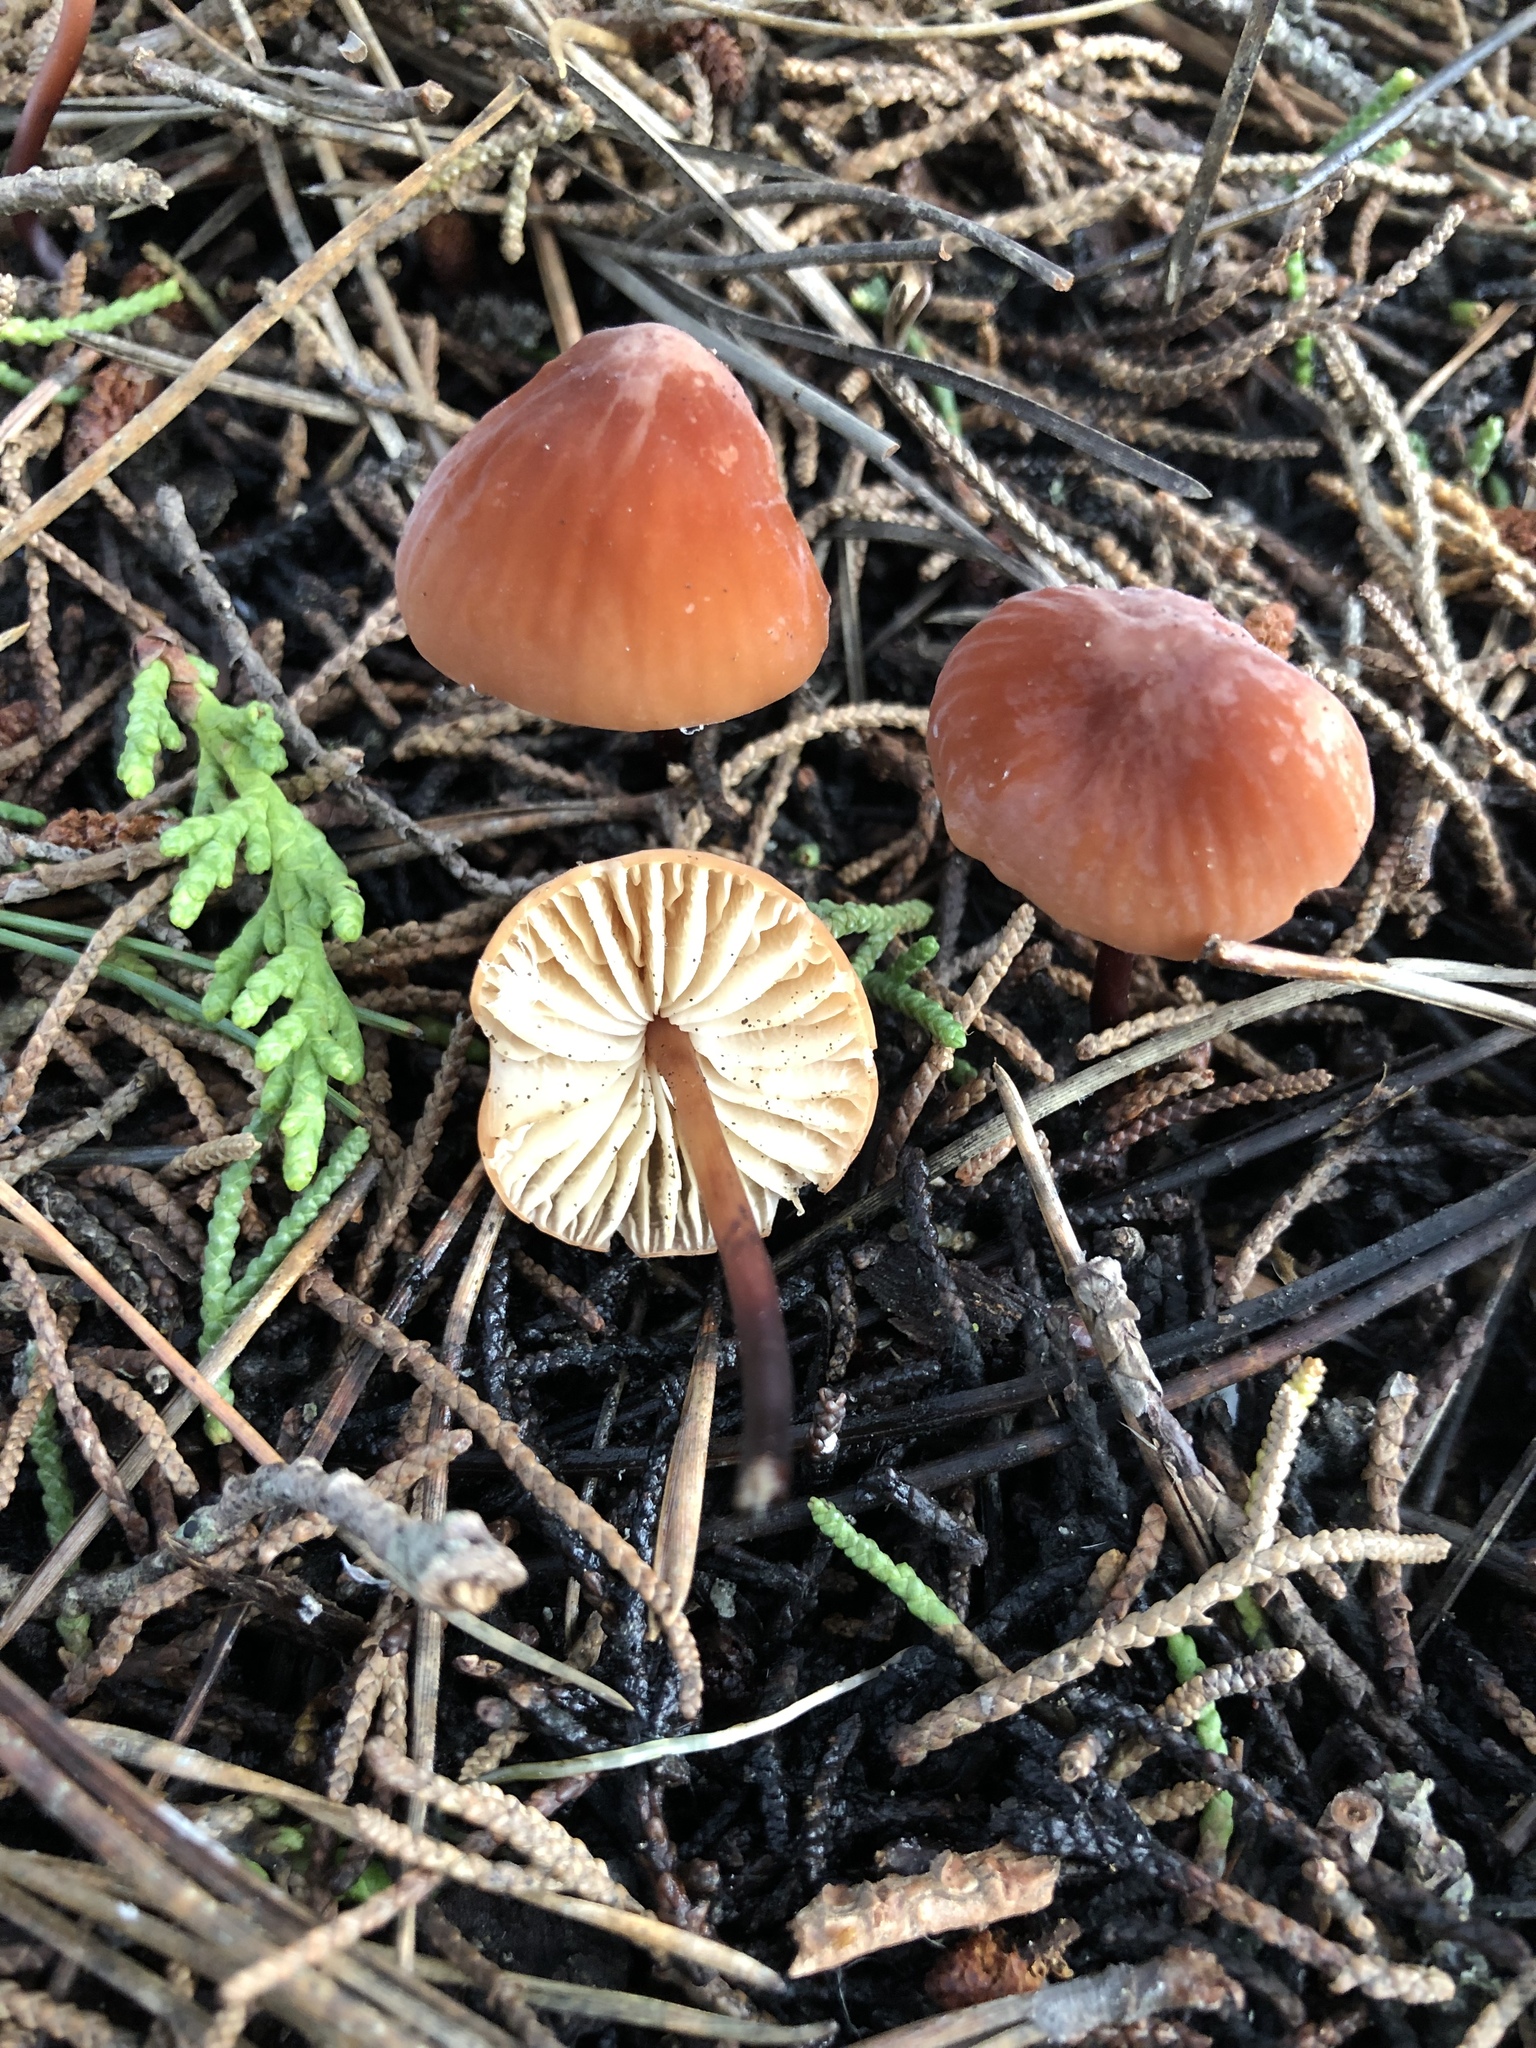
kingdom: Fungi
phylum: Basidiomycota
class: Agaricomycetes
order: Agaricales
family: Marasmiaceae
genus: Marasmius
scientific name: Marasmius plicatulus
